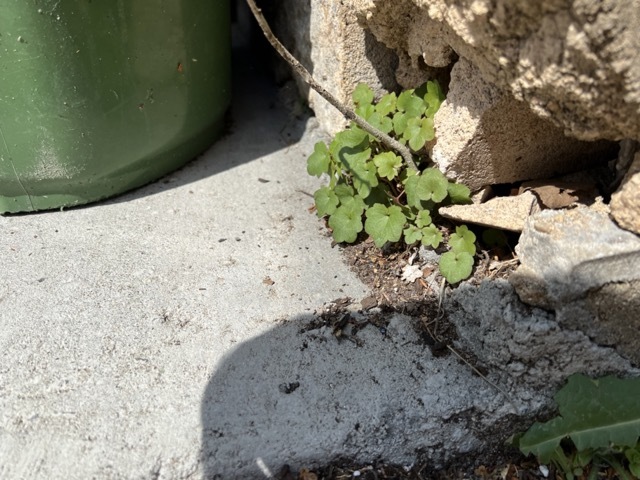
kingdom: Plantae
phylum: Tracheophyta
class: Magnoliopsida
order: Lamiales
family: Plantaginaceae
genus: Cymbalaria
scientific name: Cymbalaria muralis
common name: Ivy-leaved toadflax
